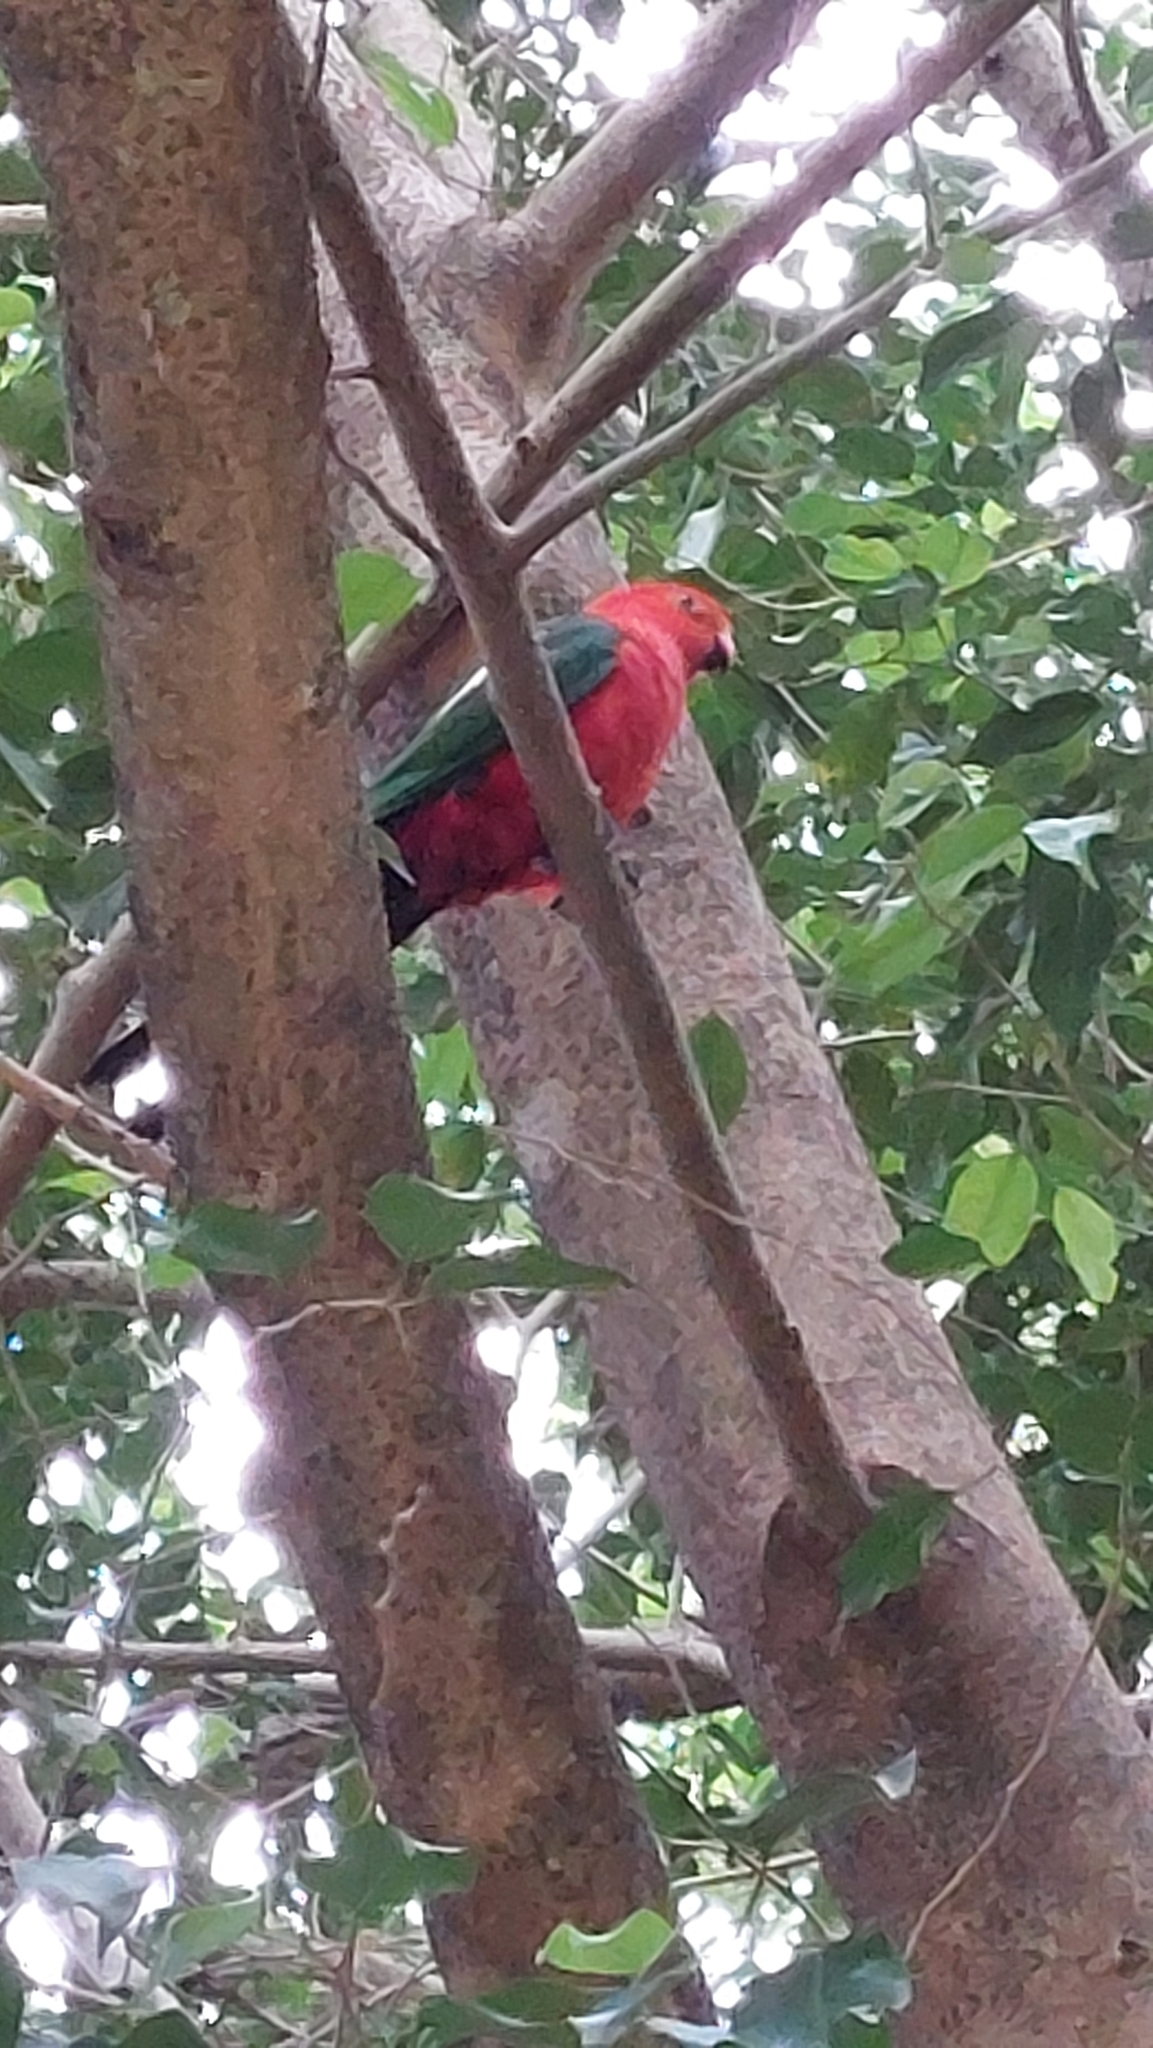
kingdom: Animalia
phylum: Chordata
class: Aves
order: Psittaciformes
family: Psittacidae
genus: Alisterus
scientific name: Alisterus scapularis
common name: Australian king parrot
